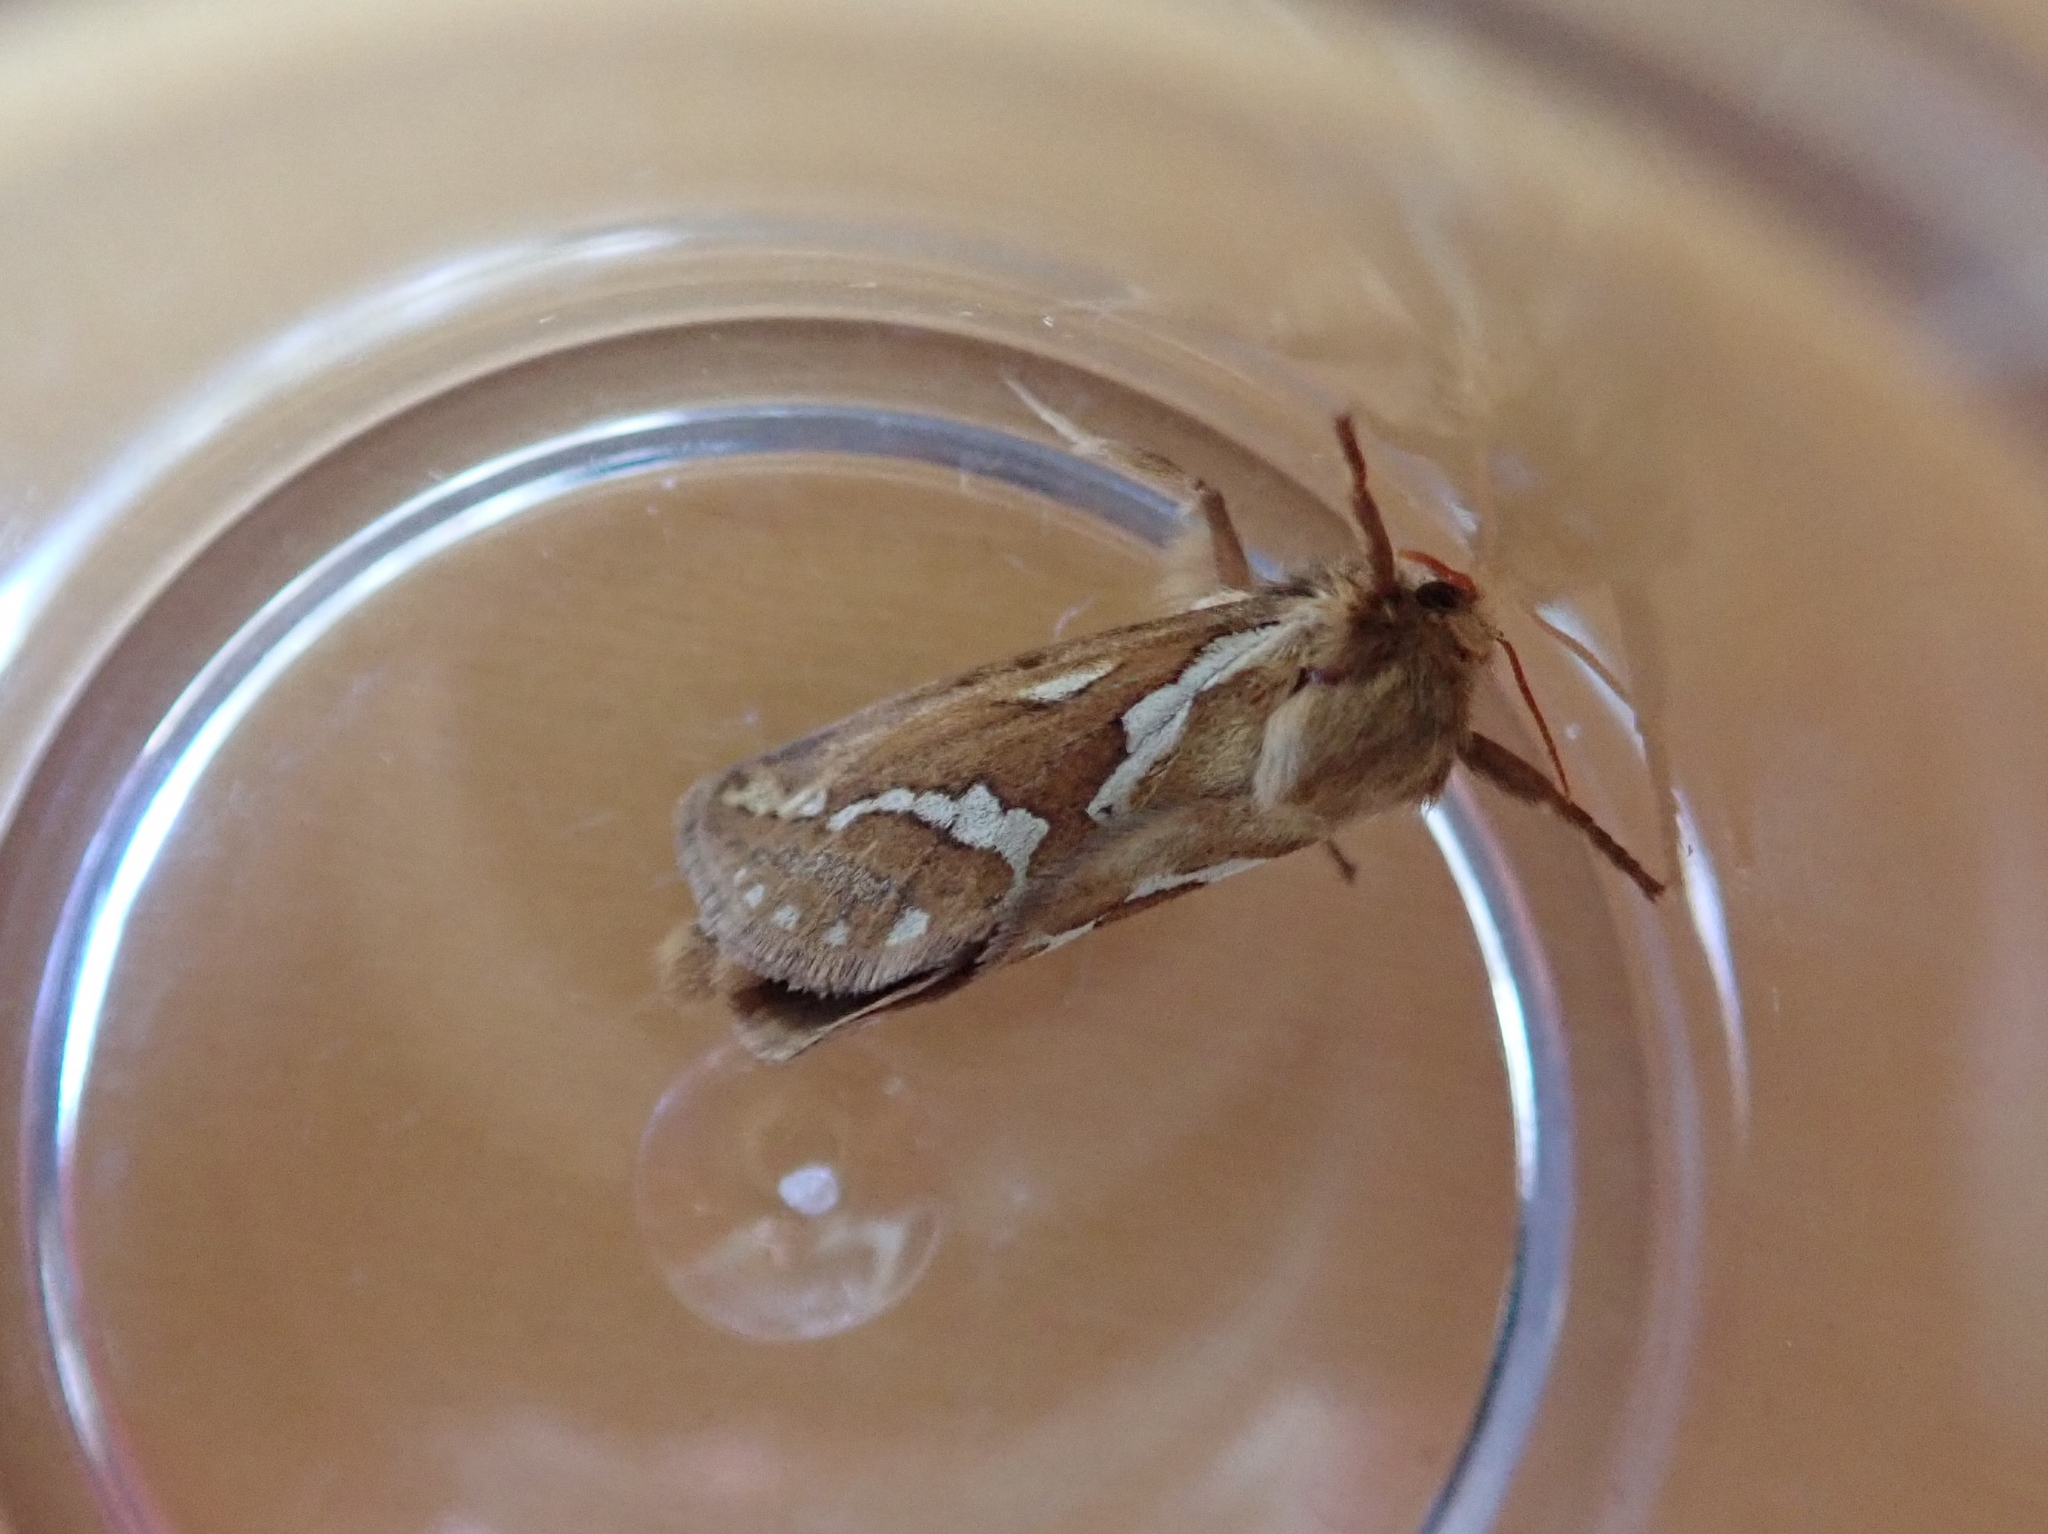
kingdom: Animalia
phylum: Arthropoda
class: Insecta
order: Lepidoptera
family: Hepialidae
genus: Korscheltellus
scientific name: Korscheltellus lupulina
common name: Common swift
